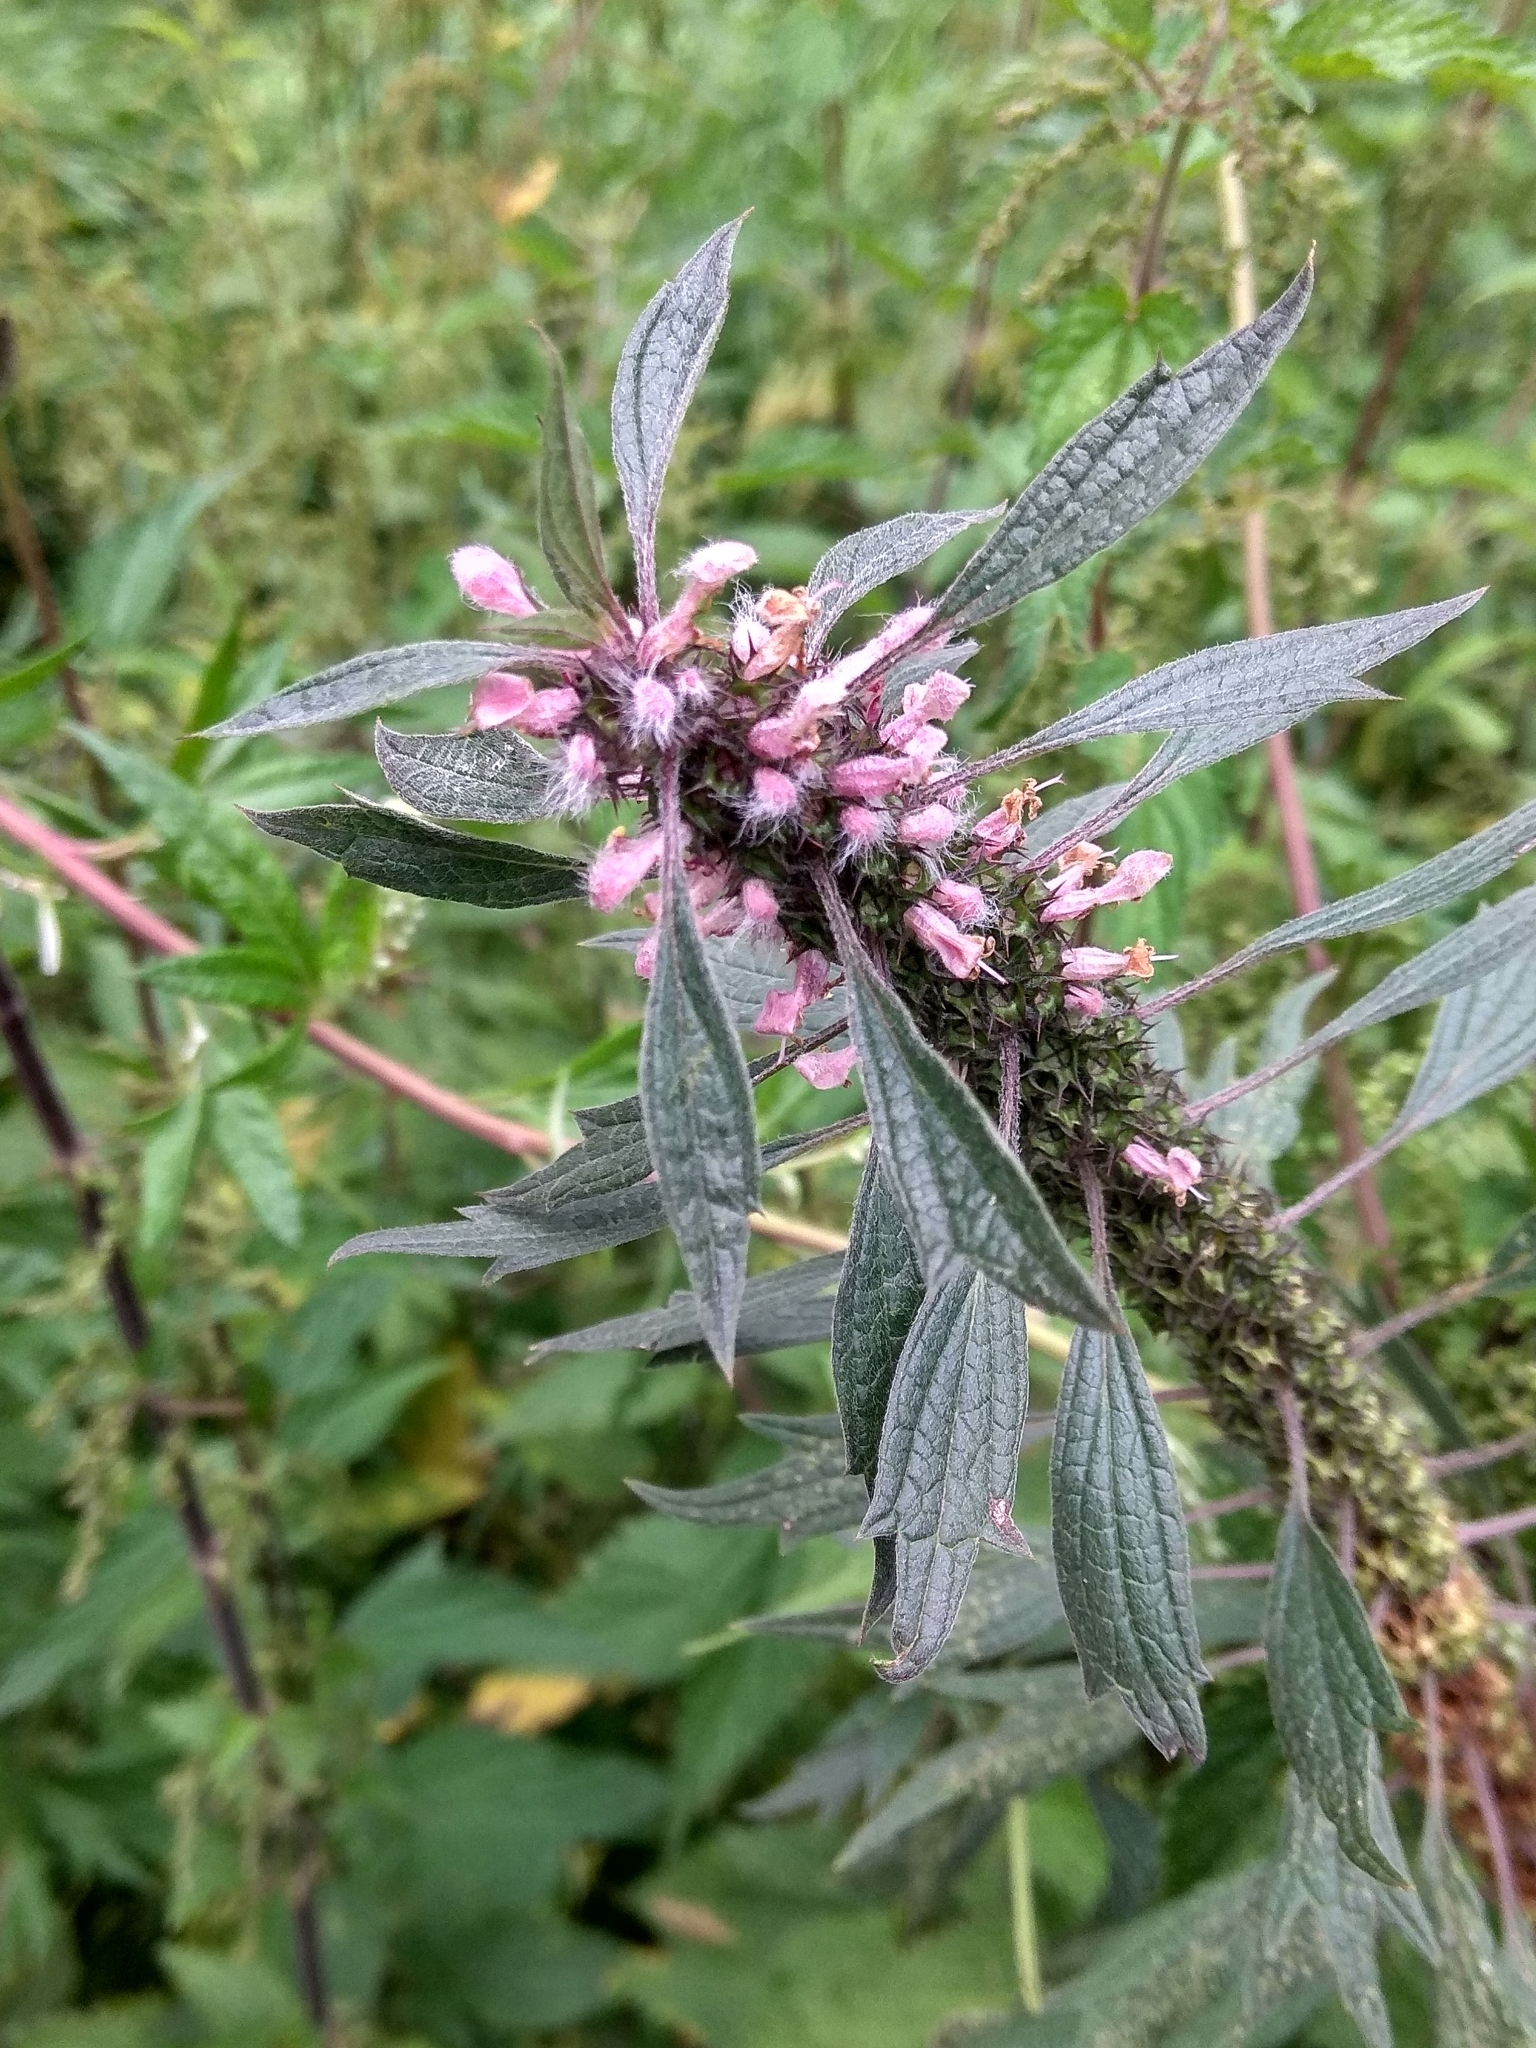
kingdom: Plantae
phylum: Tracheophyta
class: Magnoliopsida
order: Lamiales
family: Lamiaceae
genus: Leonurus
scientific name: Leonurus quinquelobatus
